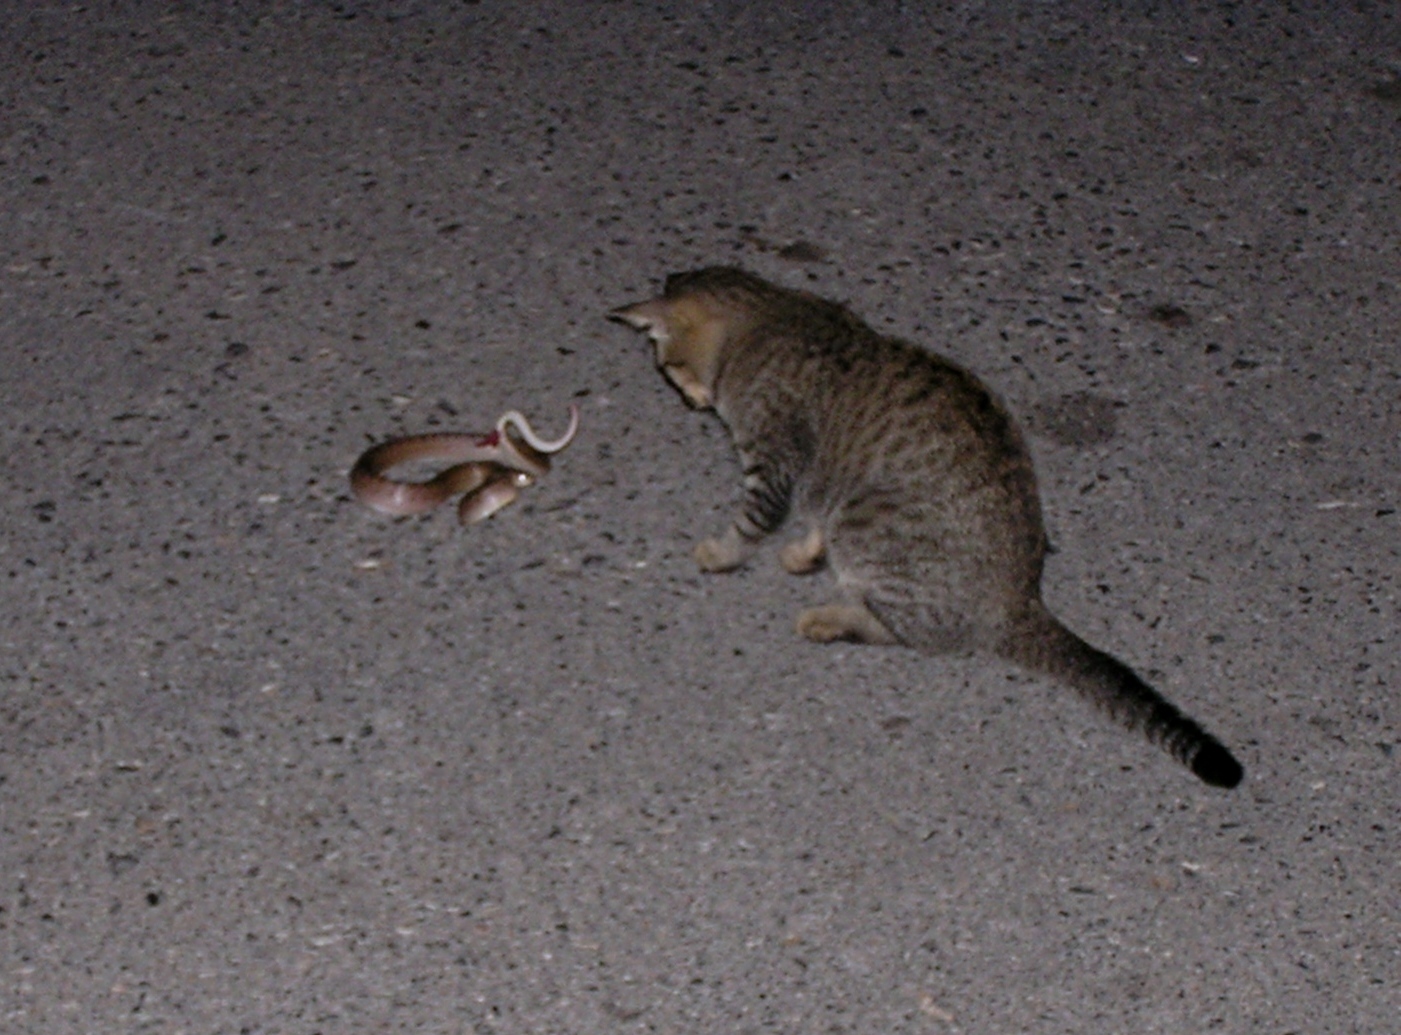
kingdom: Animalia
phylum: Chordata
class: Squamata
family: Colubridae
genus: Oligodon
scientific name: Oligodon fasciolatus
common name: Fasciolated kukri snake
